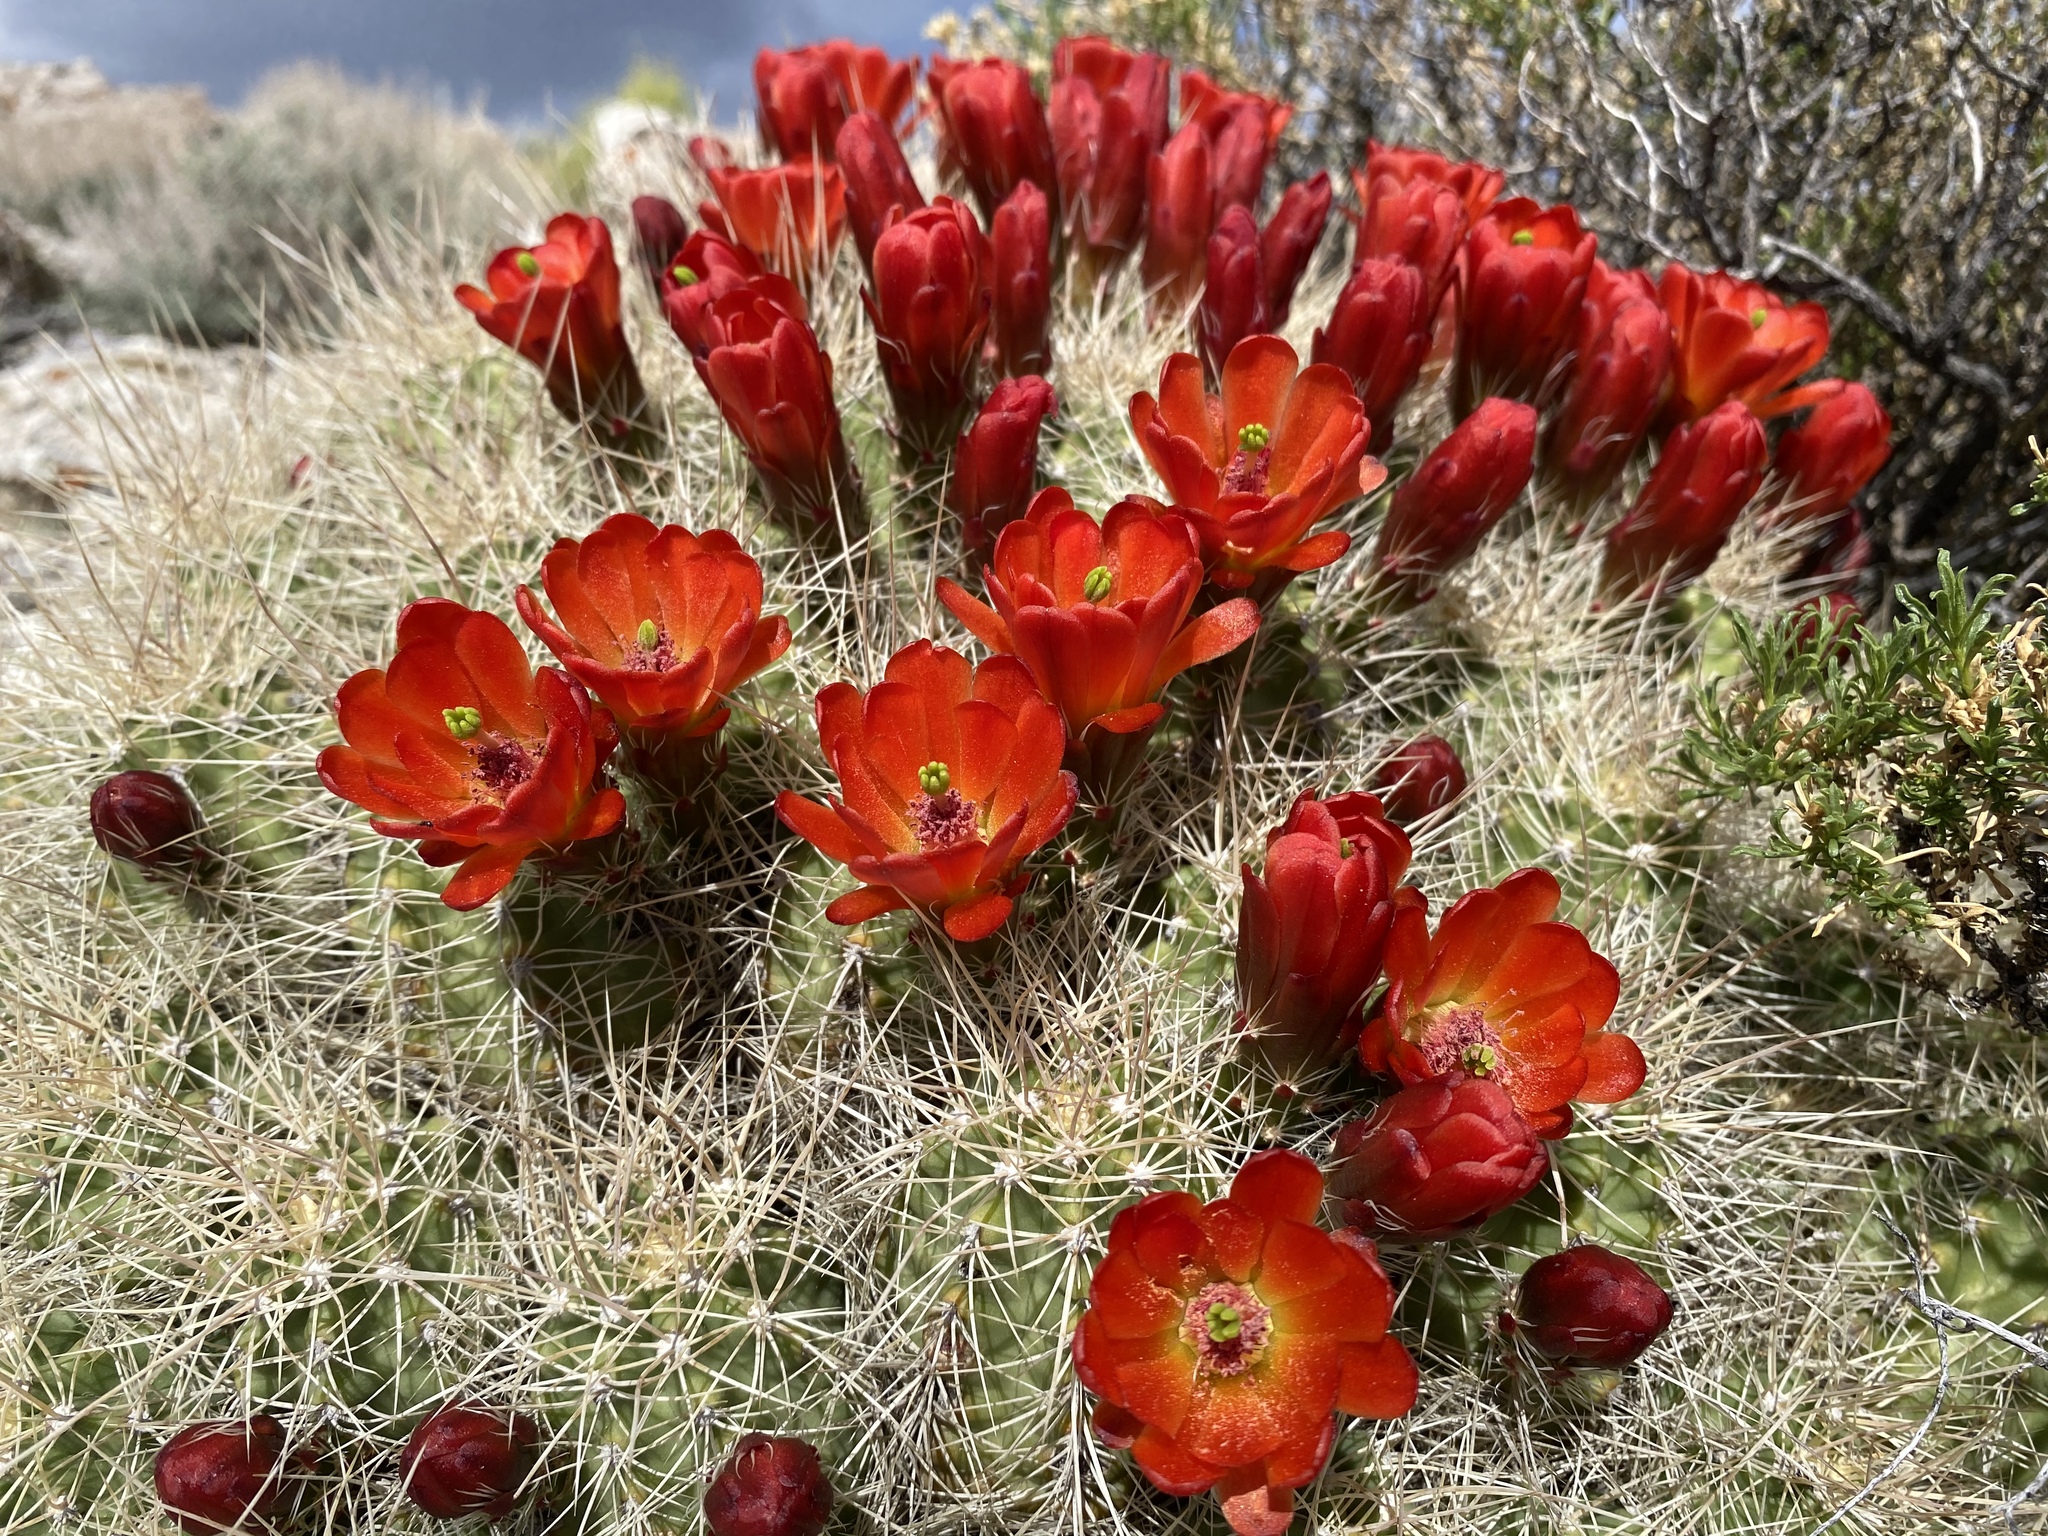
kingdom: Plantae
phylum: Tracheophyta
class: Magnoliopsida
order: Caryophyllales
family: Cactaceae
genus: Echinocereus
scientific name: Echinocereus triglochidiatus
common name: Claretcup hedgehog
